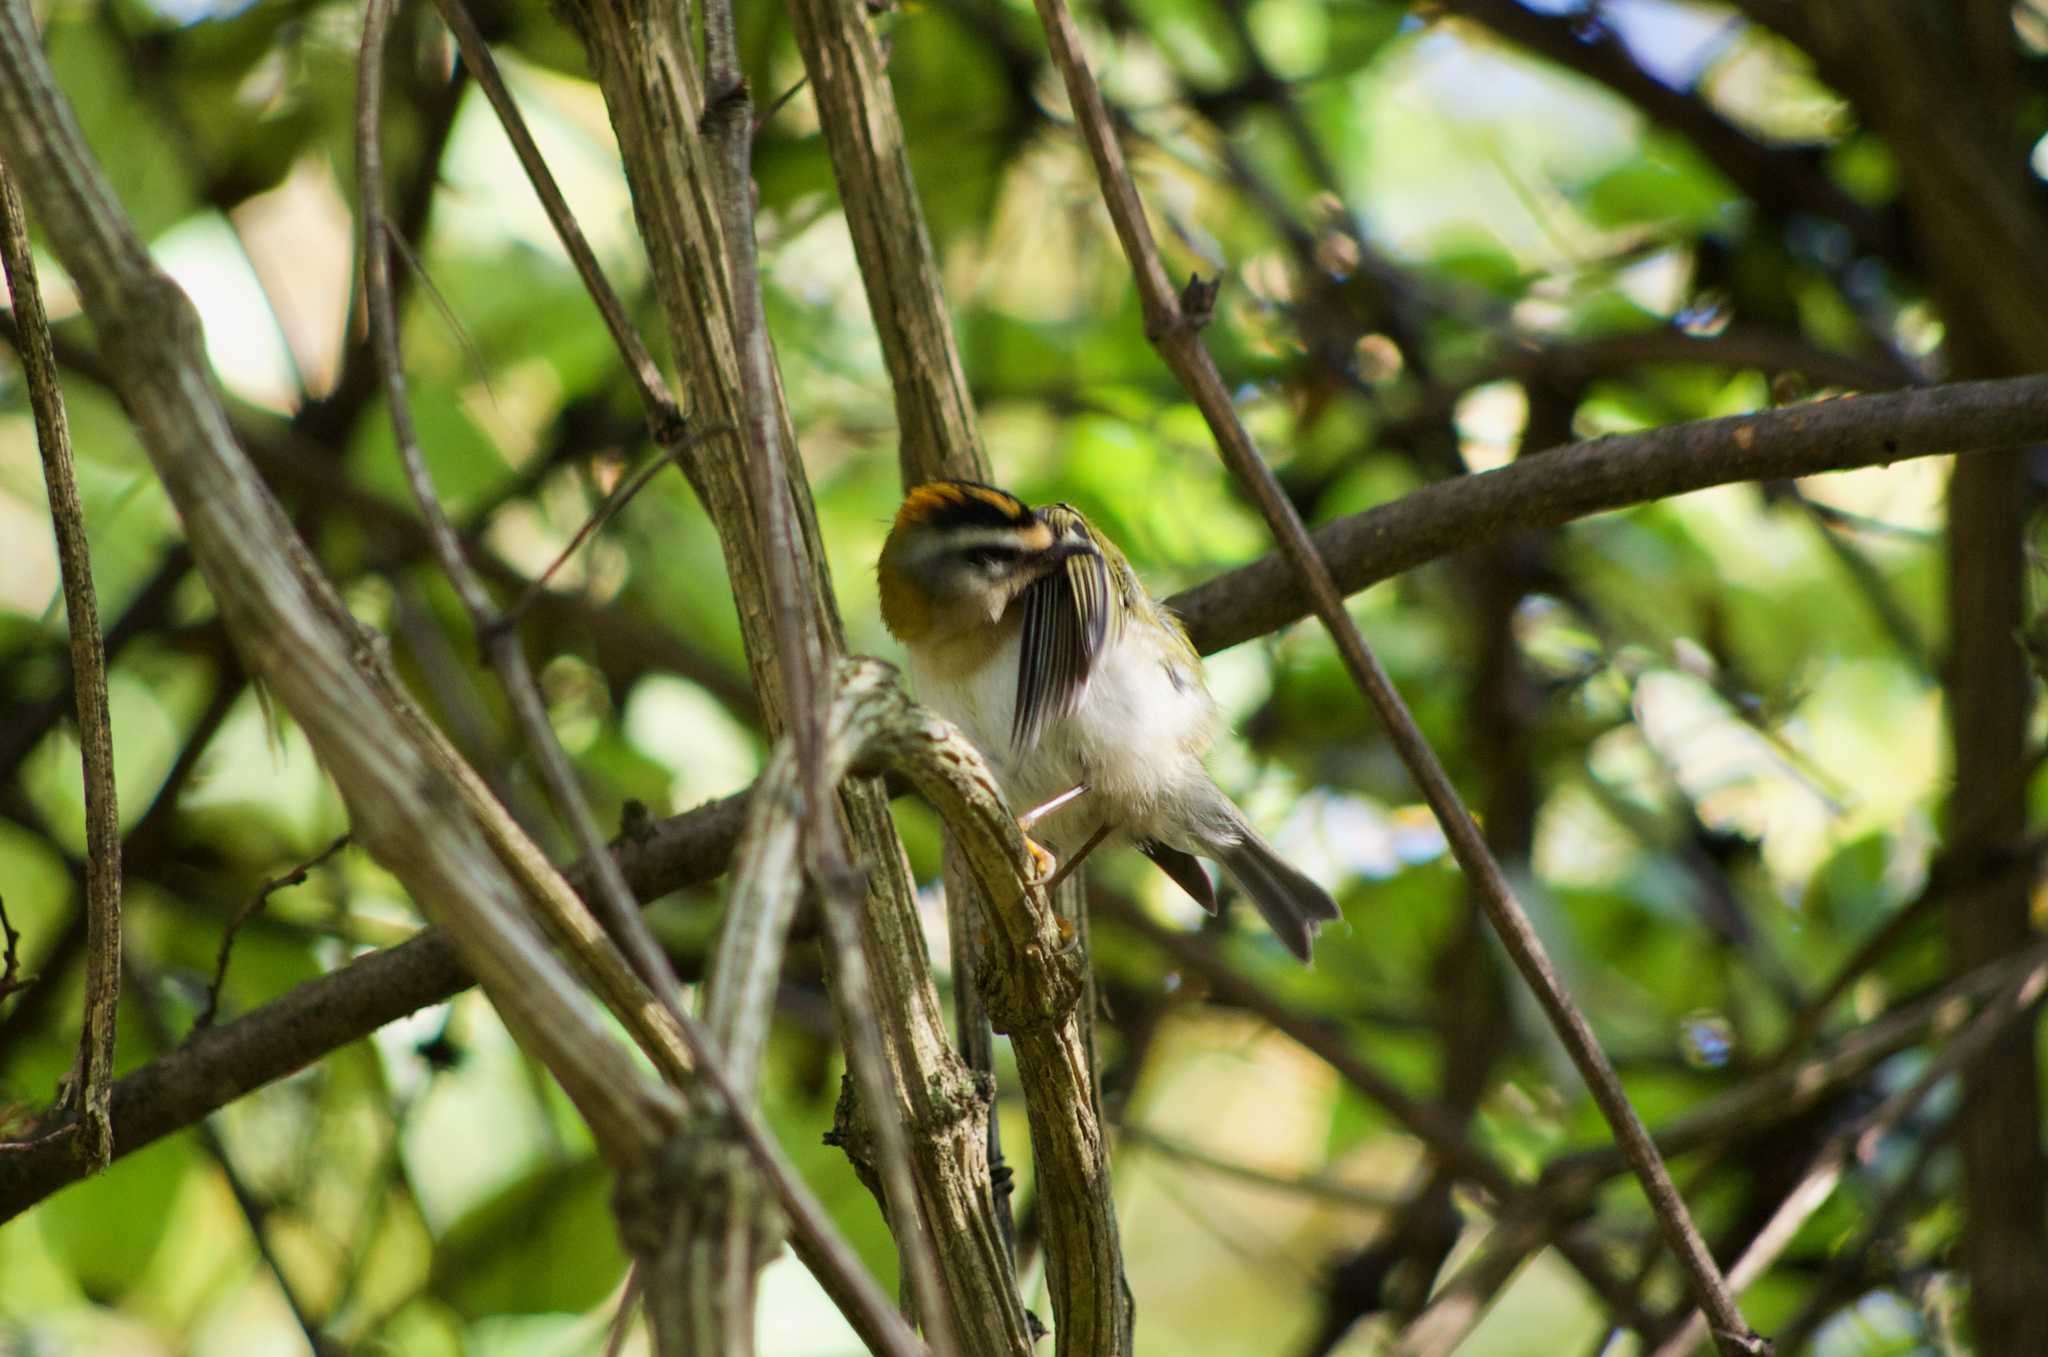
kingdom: Animalia
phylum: Chordata
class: Aves
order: Passeriformes
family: Regulidae
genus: Regulus
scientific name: Regulus ignicapilla
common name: Firecrest
